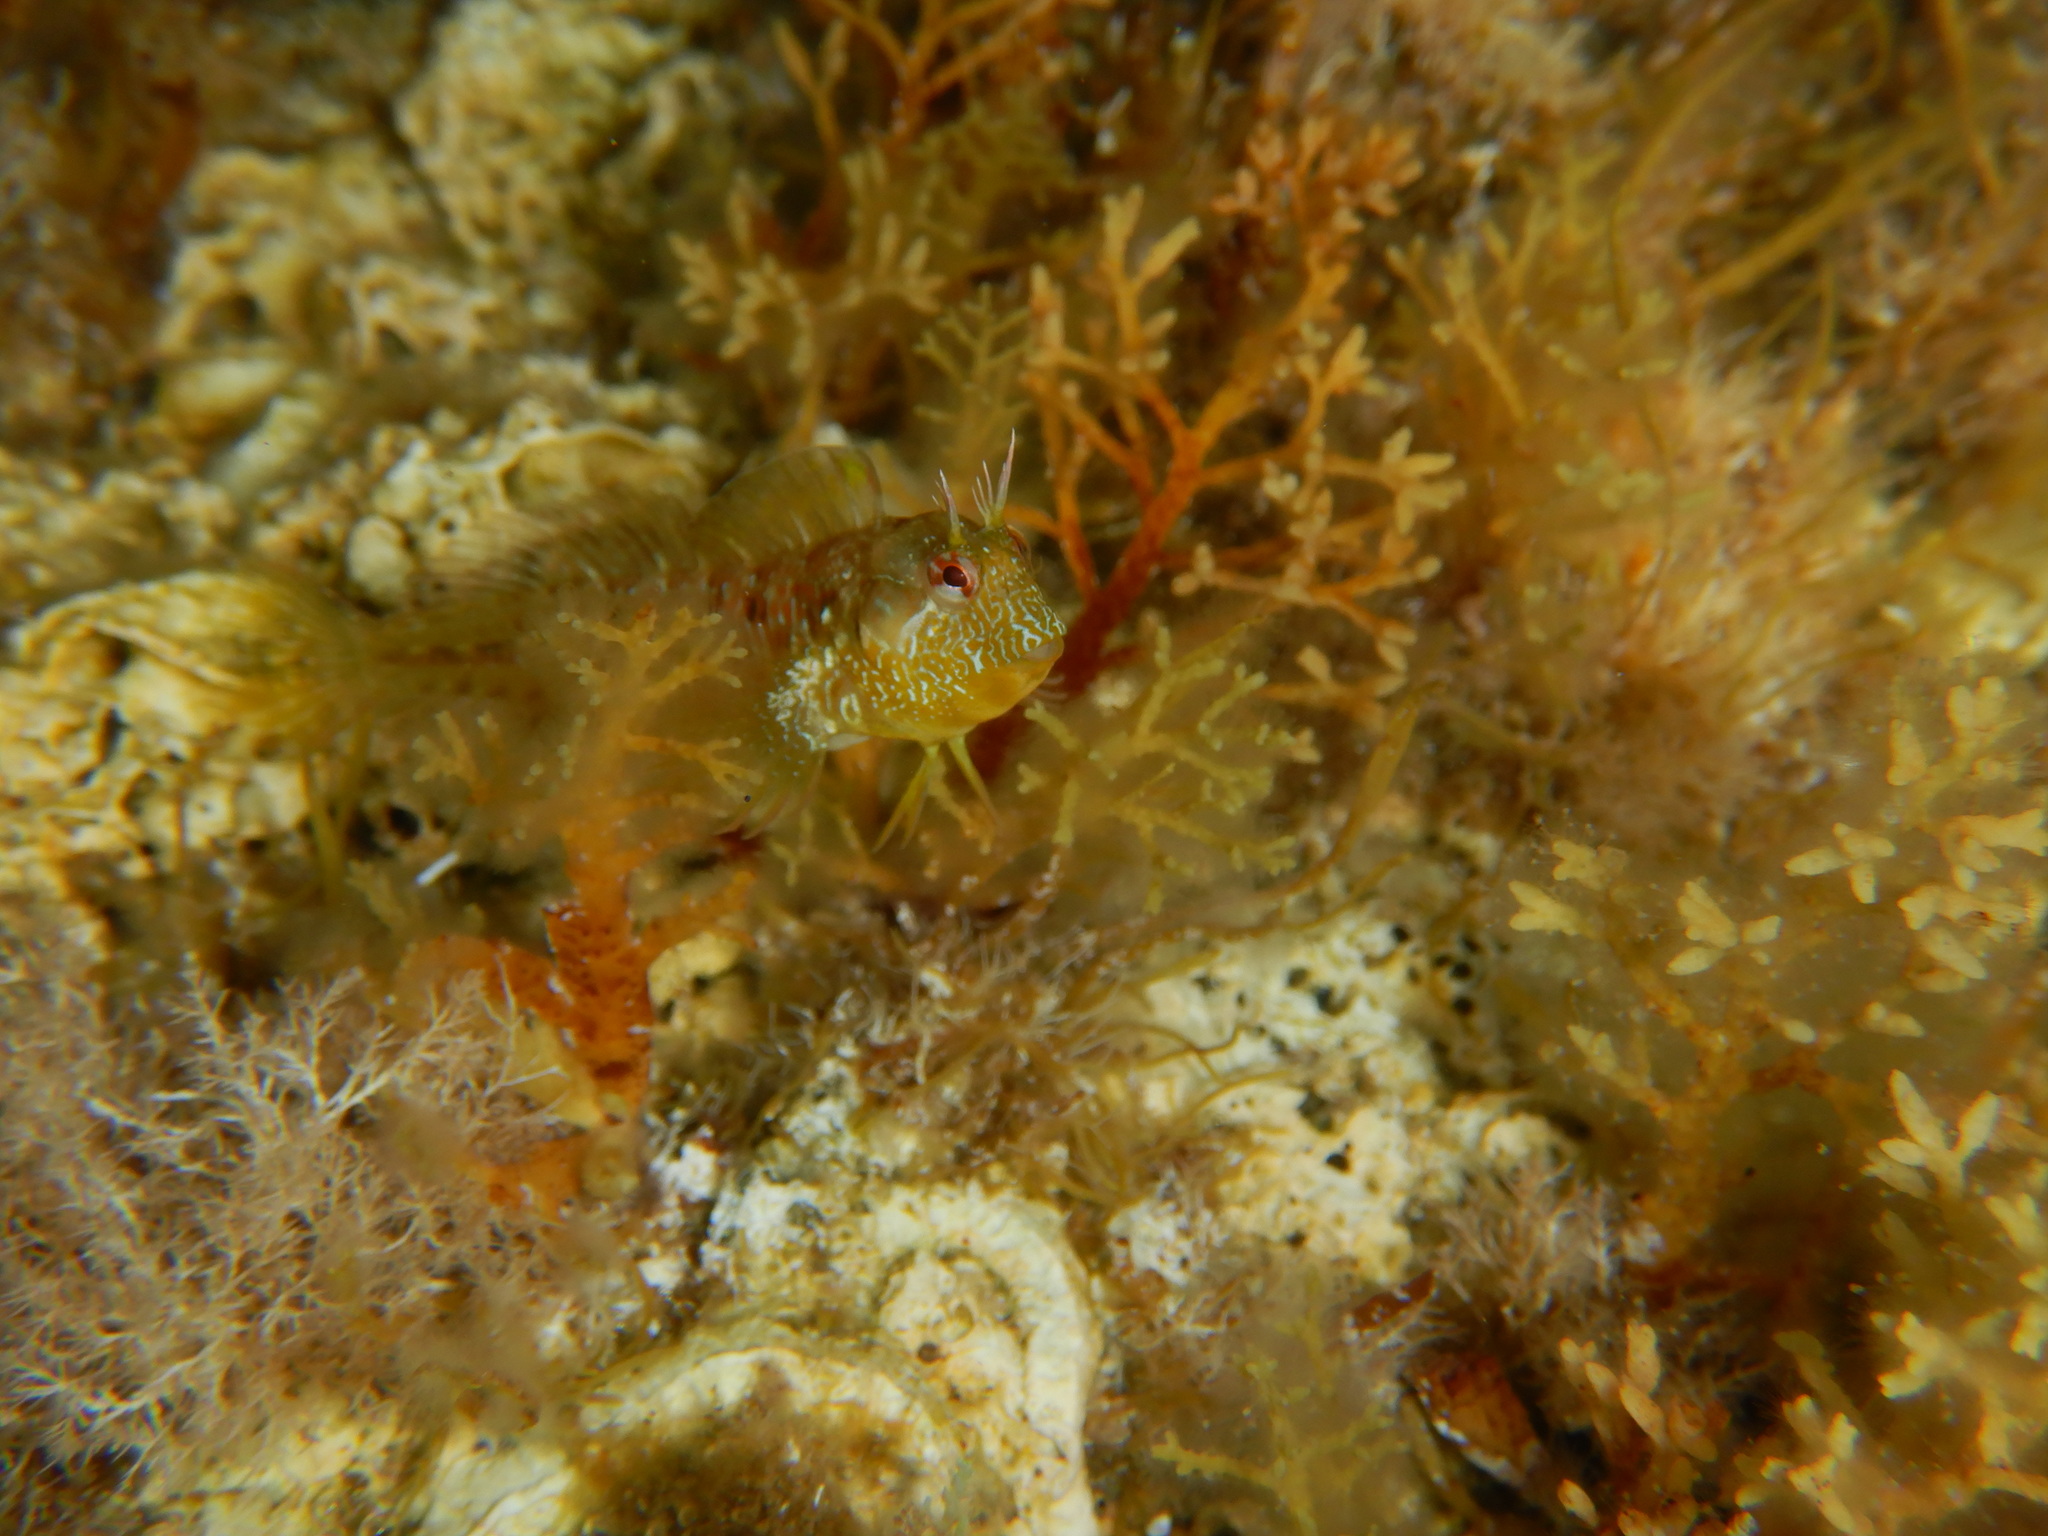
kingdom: Animalia
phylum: Chordata
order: Perciformes
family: Blenniidae
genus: Parablennius
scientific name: Parablennius incognitus
